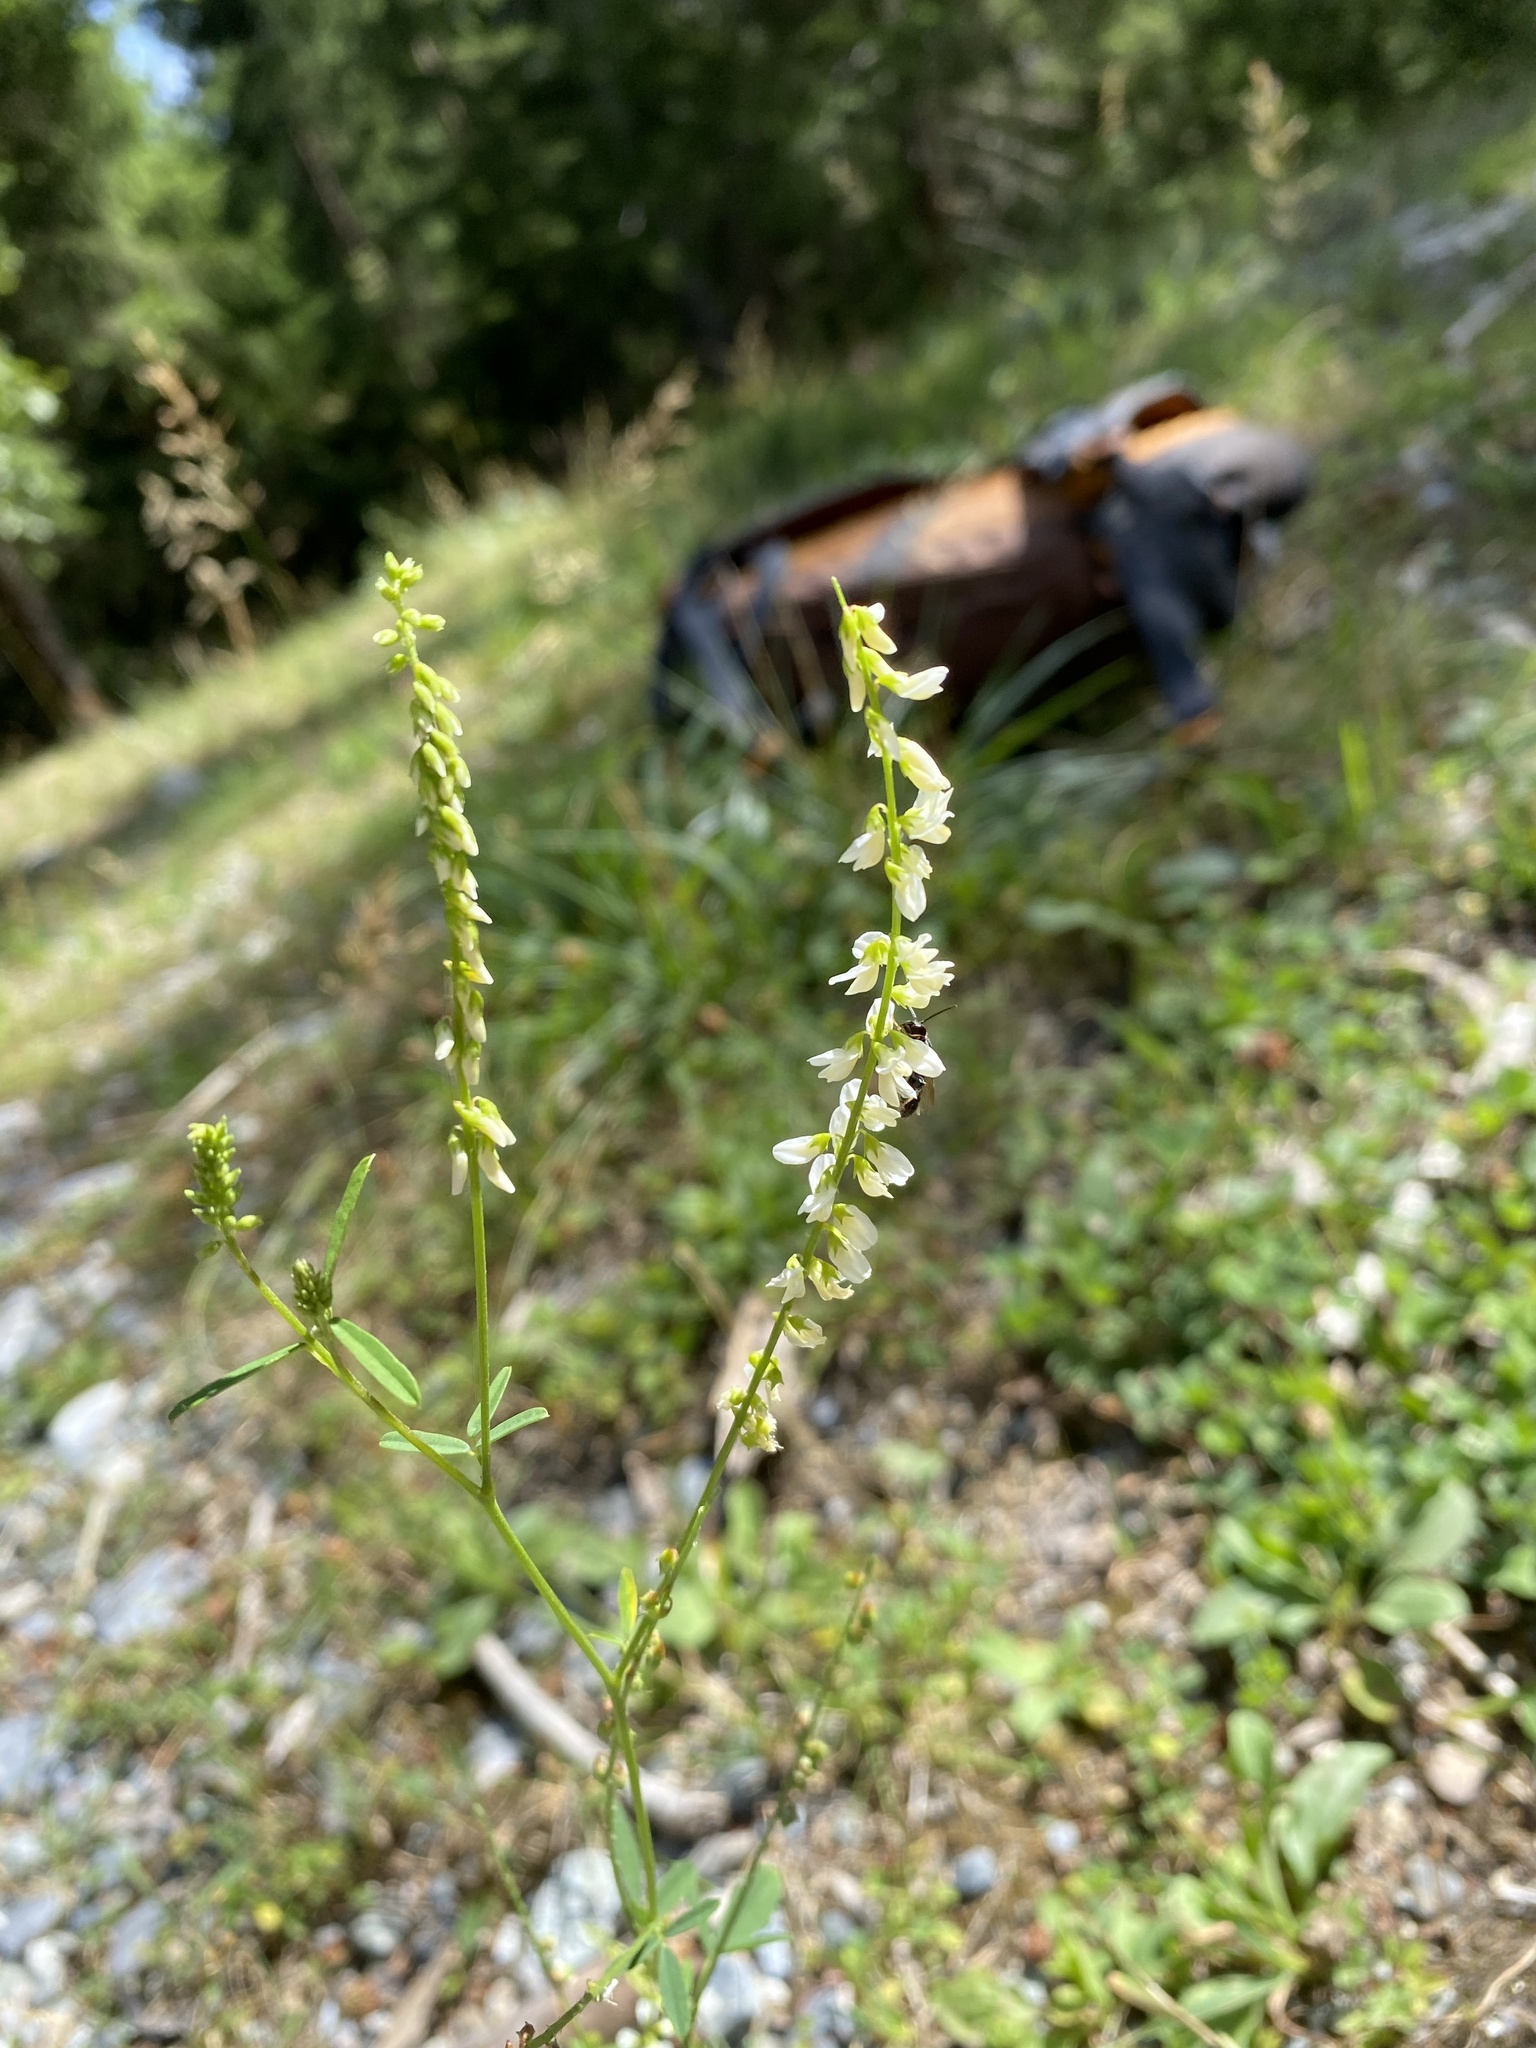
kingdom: Plantae
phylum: Tracheophyta
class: Magnoliopsida
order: Fabales
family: Fabaceae
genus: Melilotus
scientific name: Melilotus albus
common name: White melilot
